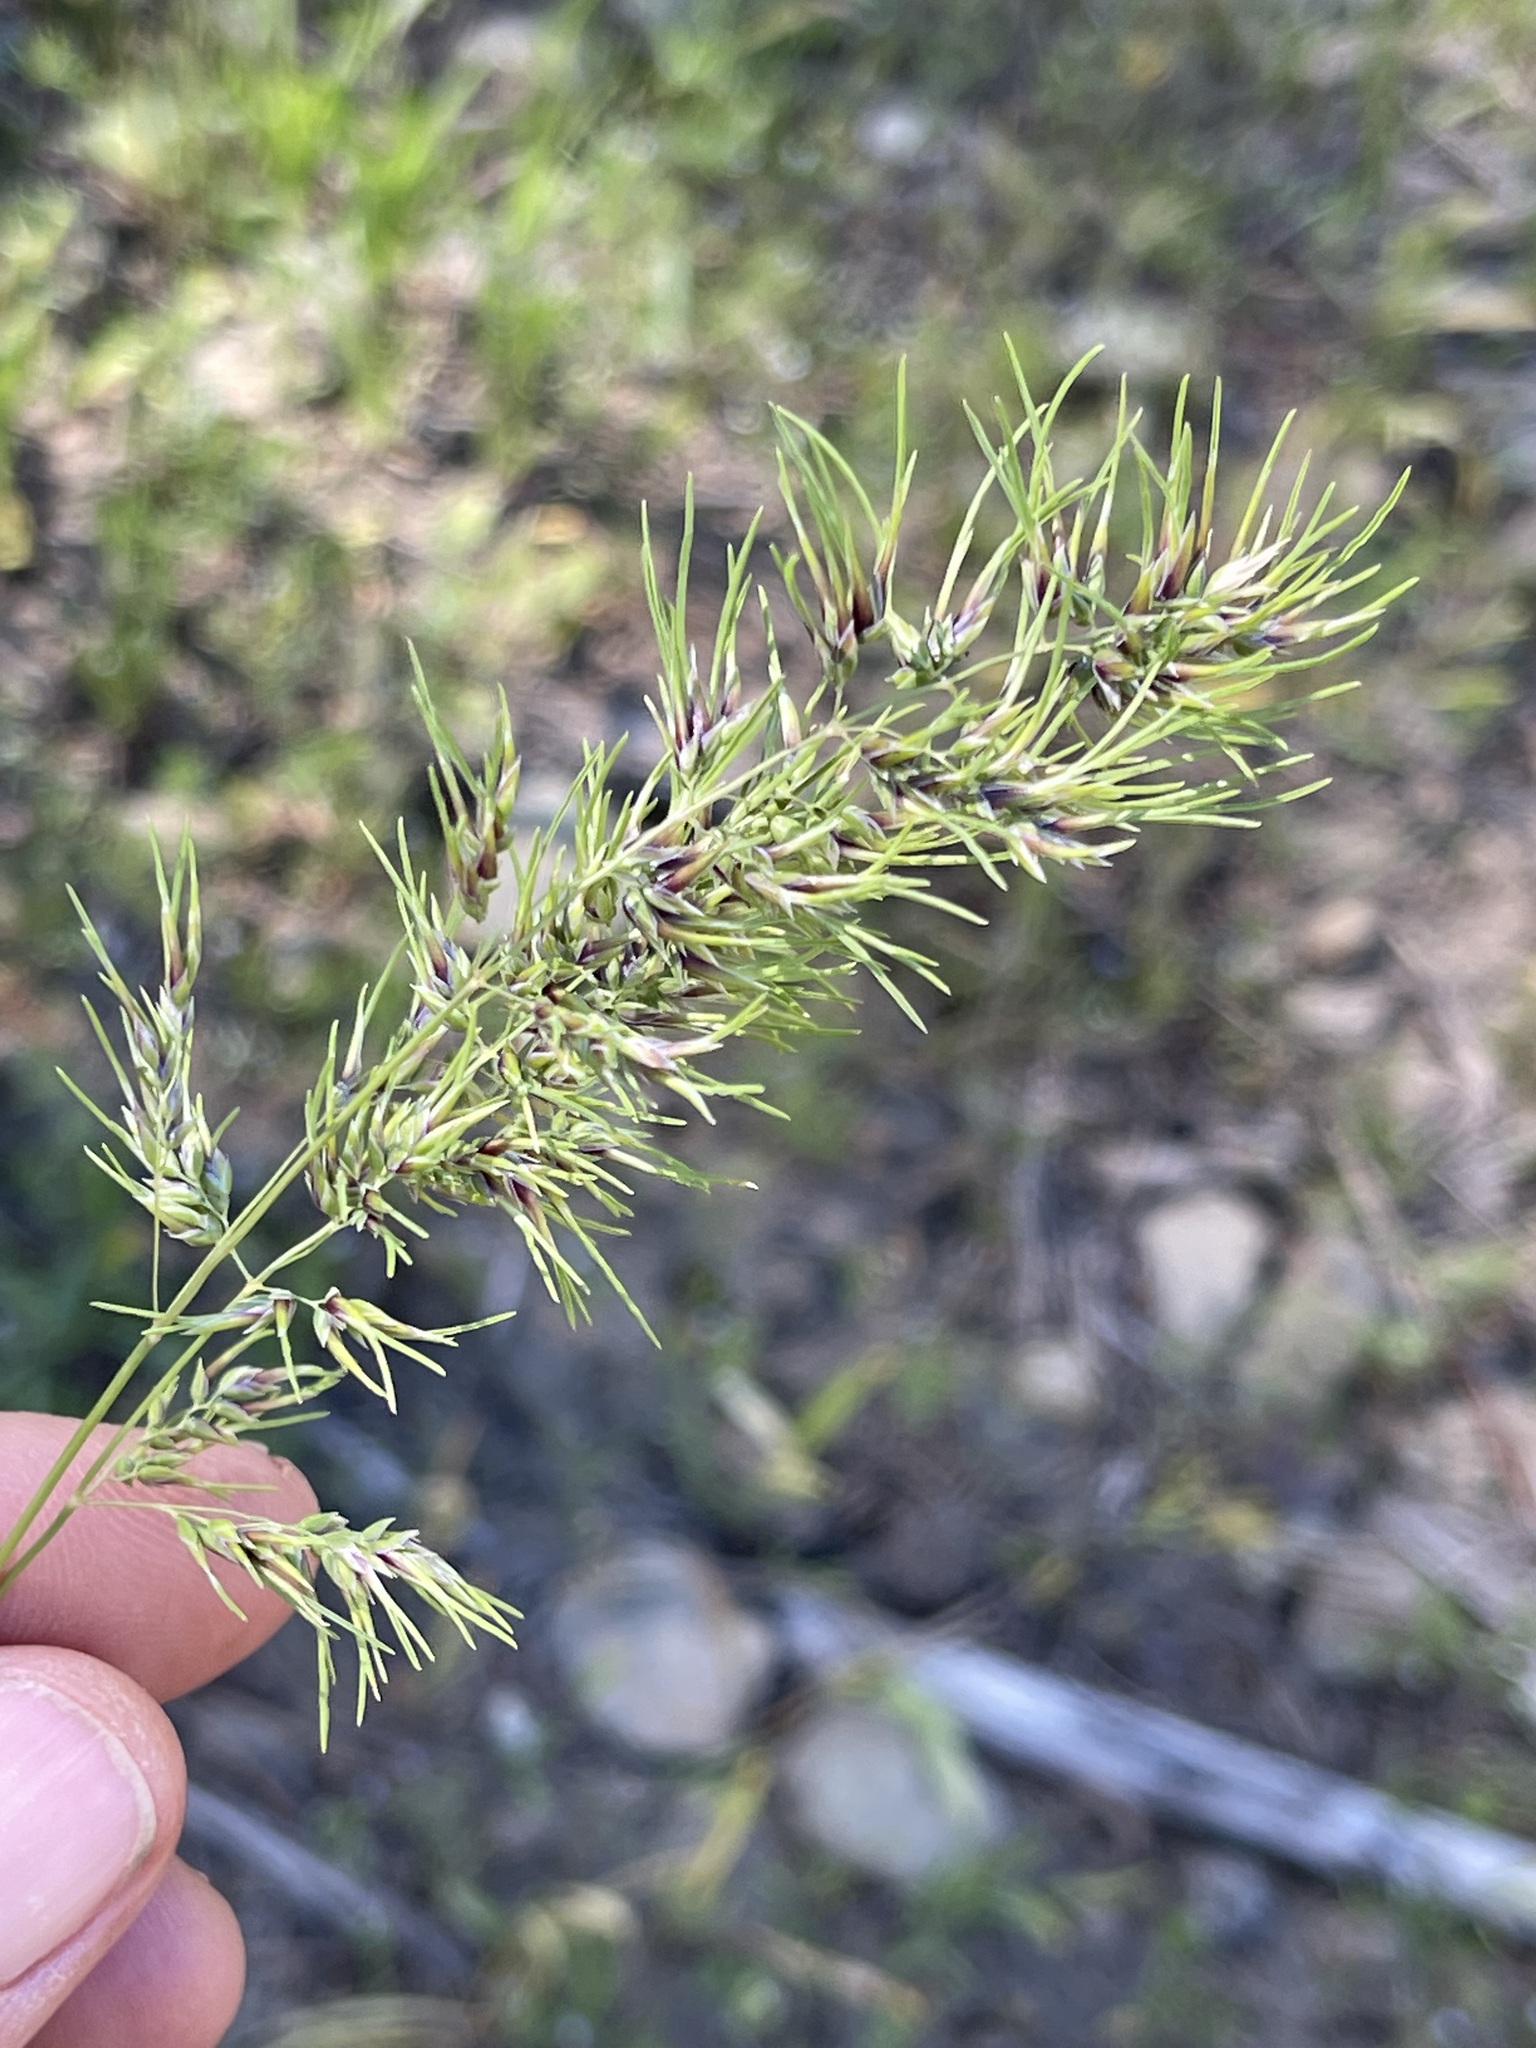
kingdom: Plantae
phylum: Tracheophyta
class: Liliopsida
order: Poales
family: Poaceae
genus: Poa
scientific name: Poa bulbosa
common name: Bulbous bluegrass
